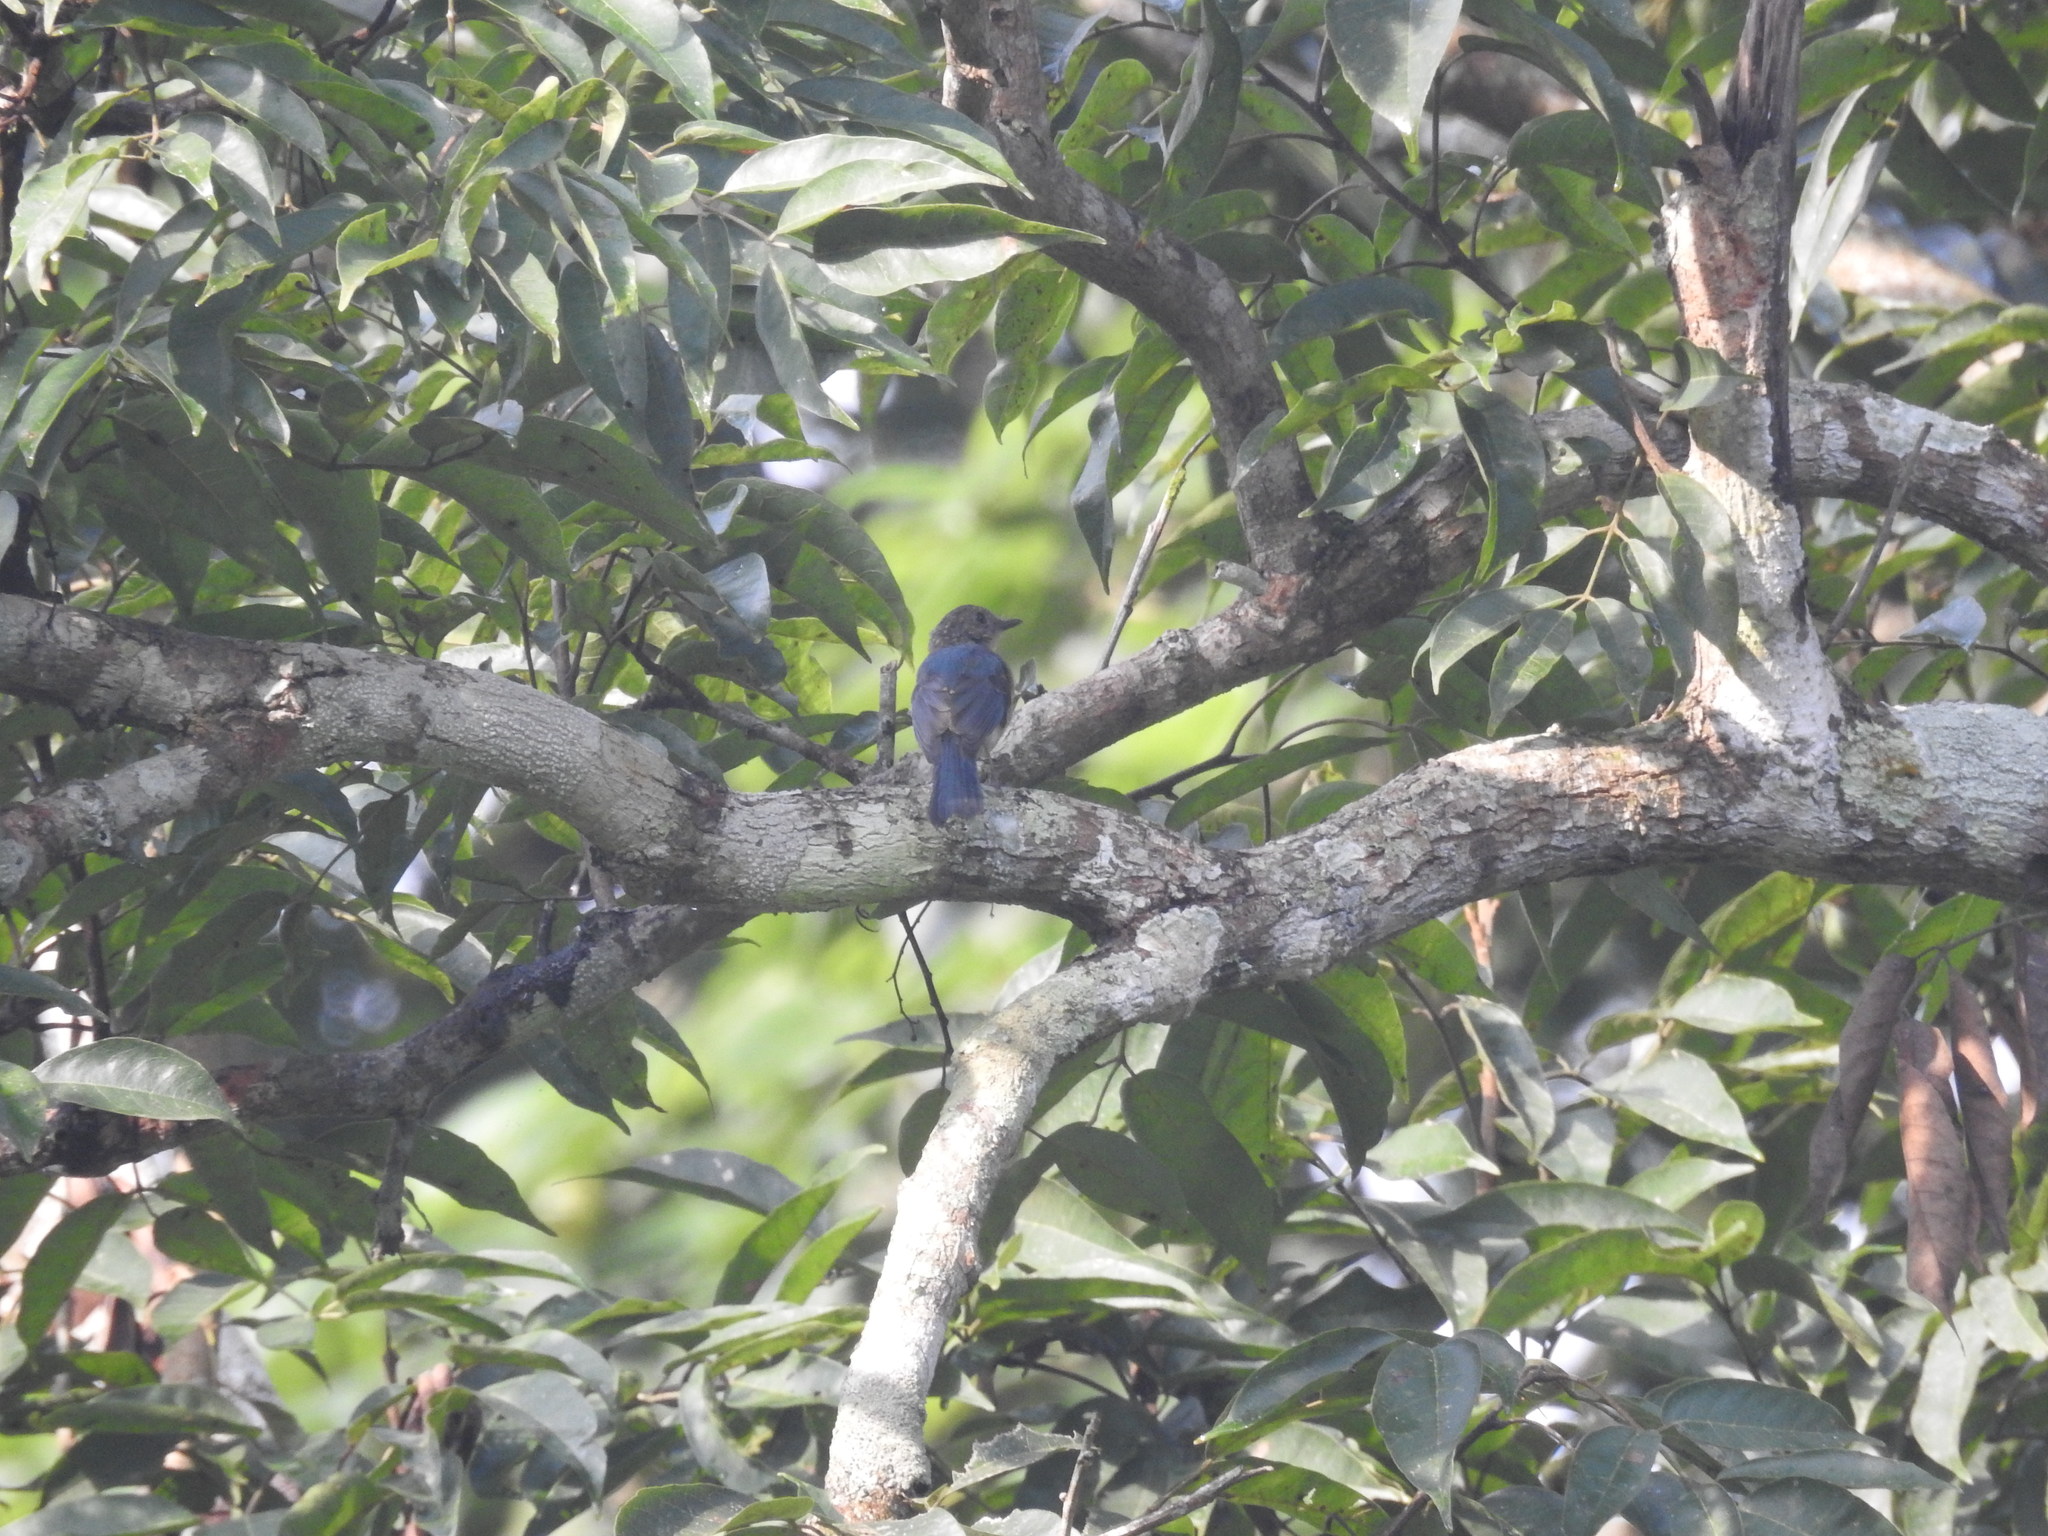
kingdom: Animalia
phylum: Chordata
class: Aves
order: Passeriformes
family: Muscicapidae
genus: Cyornis
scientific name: Cyornis tickelliae
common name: Tickell's blue flycatcher
